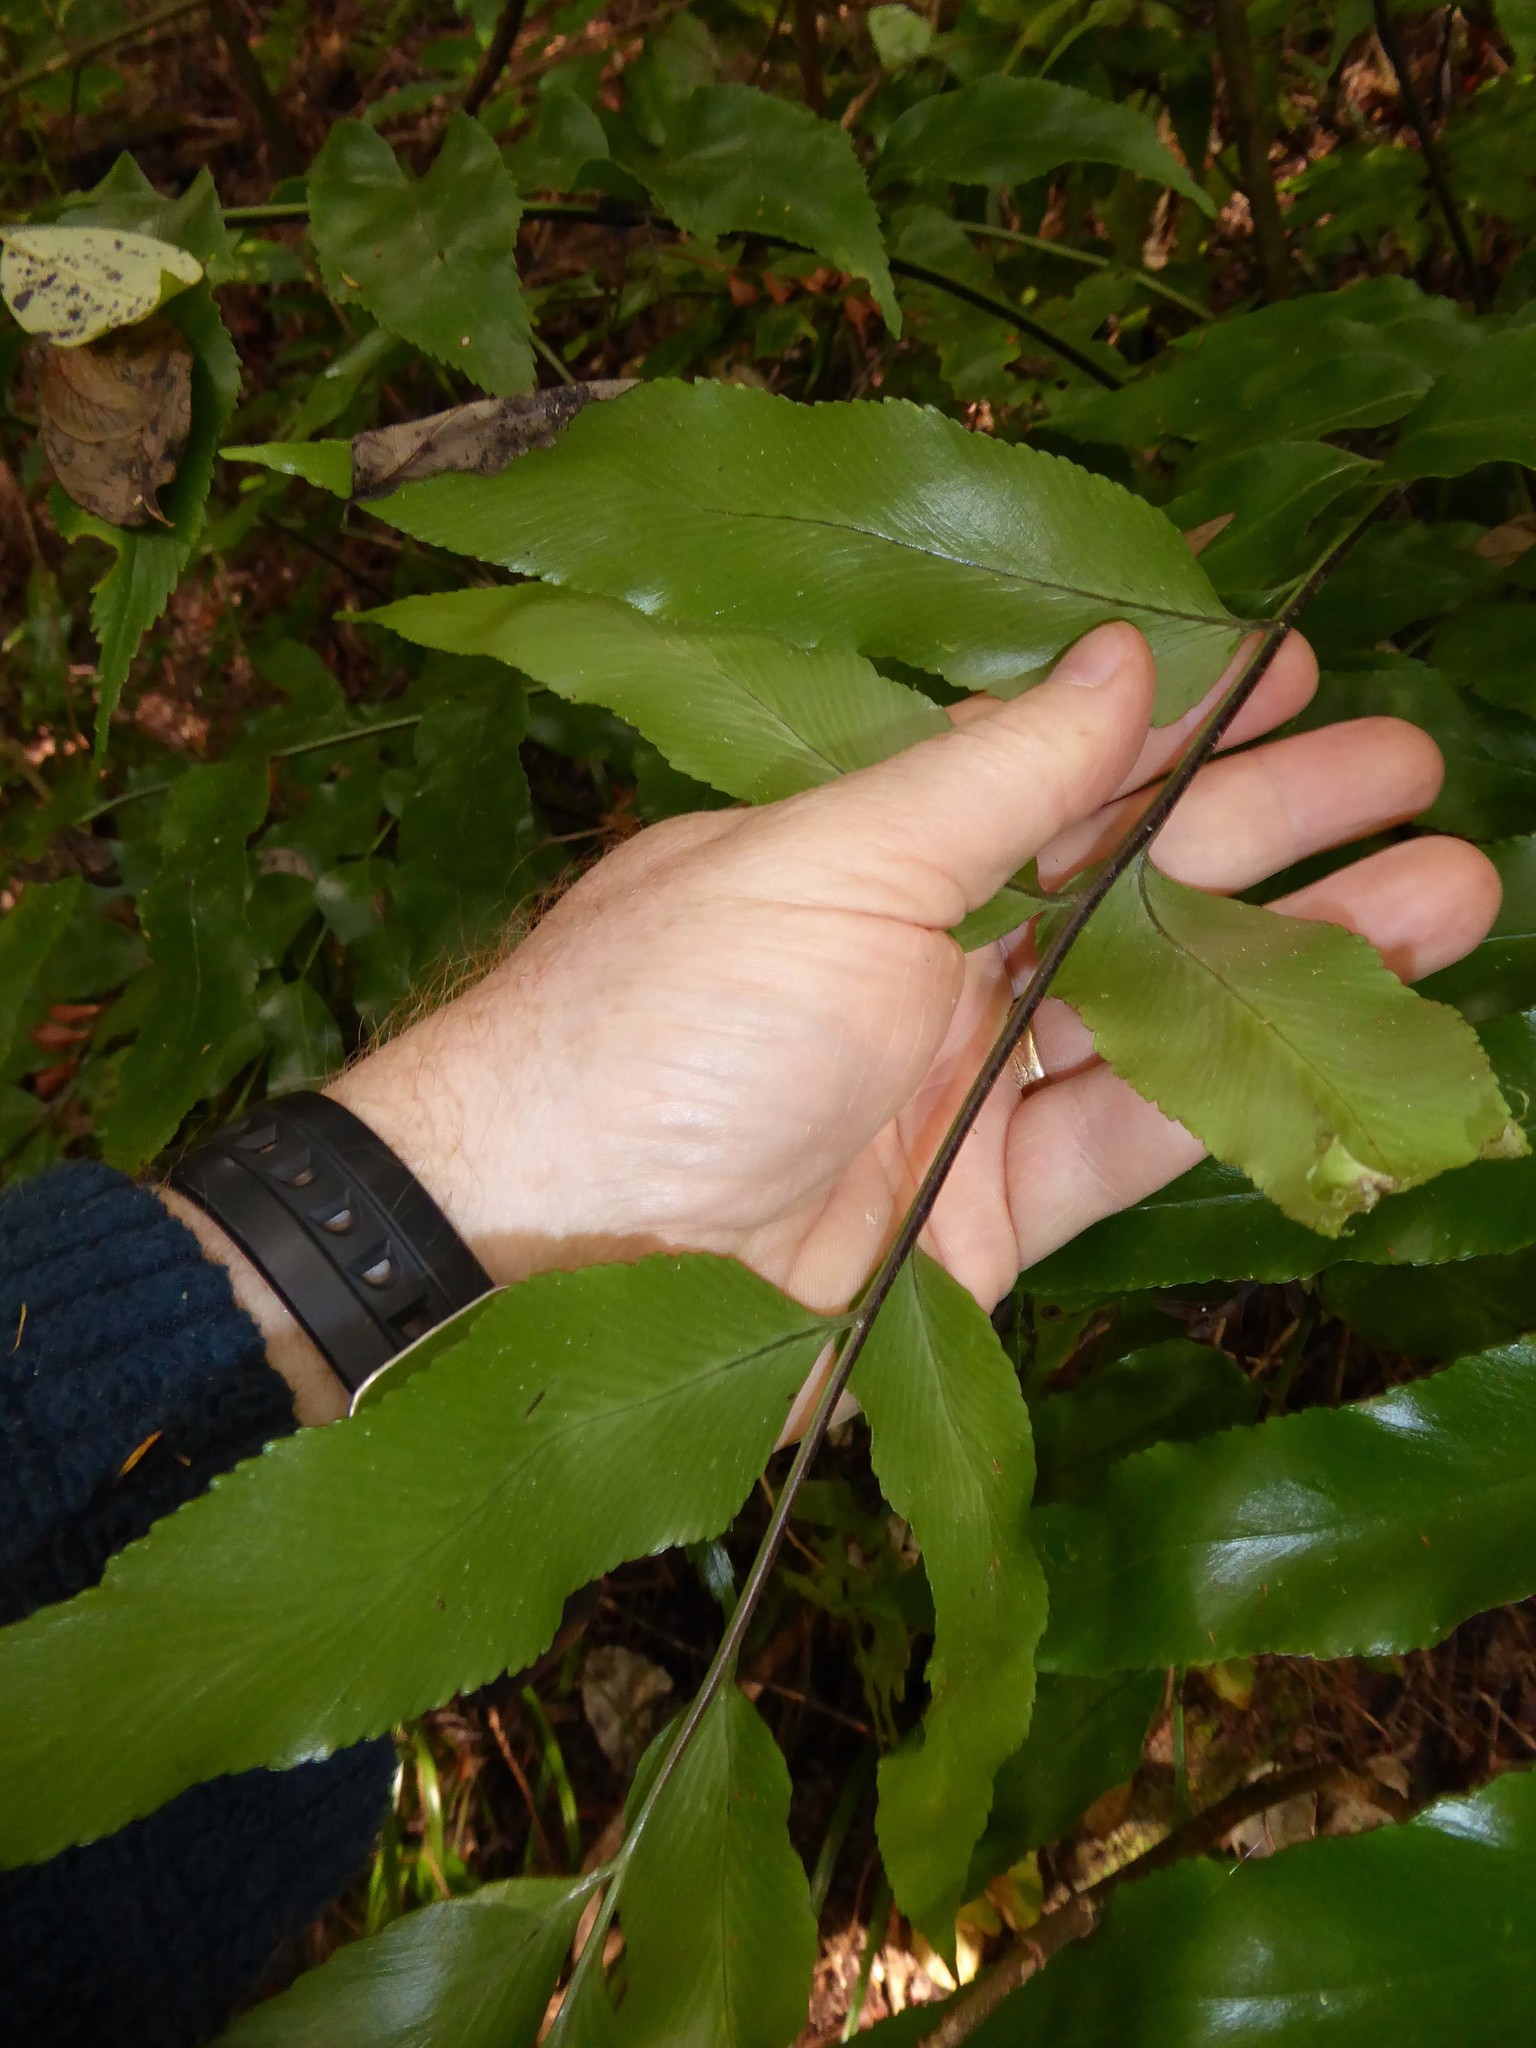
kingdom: Plantae
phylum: Tracheophyta
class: Polypodiopsida
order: Polypodiales
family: Aspleniaceae
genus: Asplenium
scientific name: Asplenium oblongifolium
